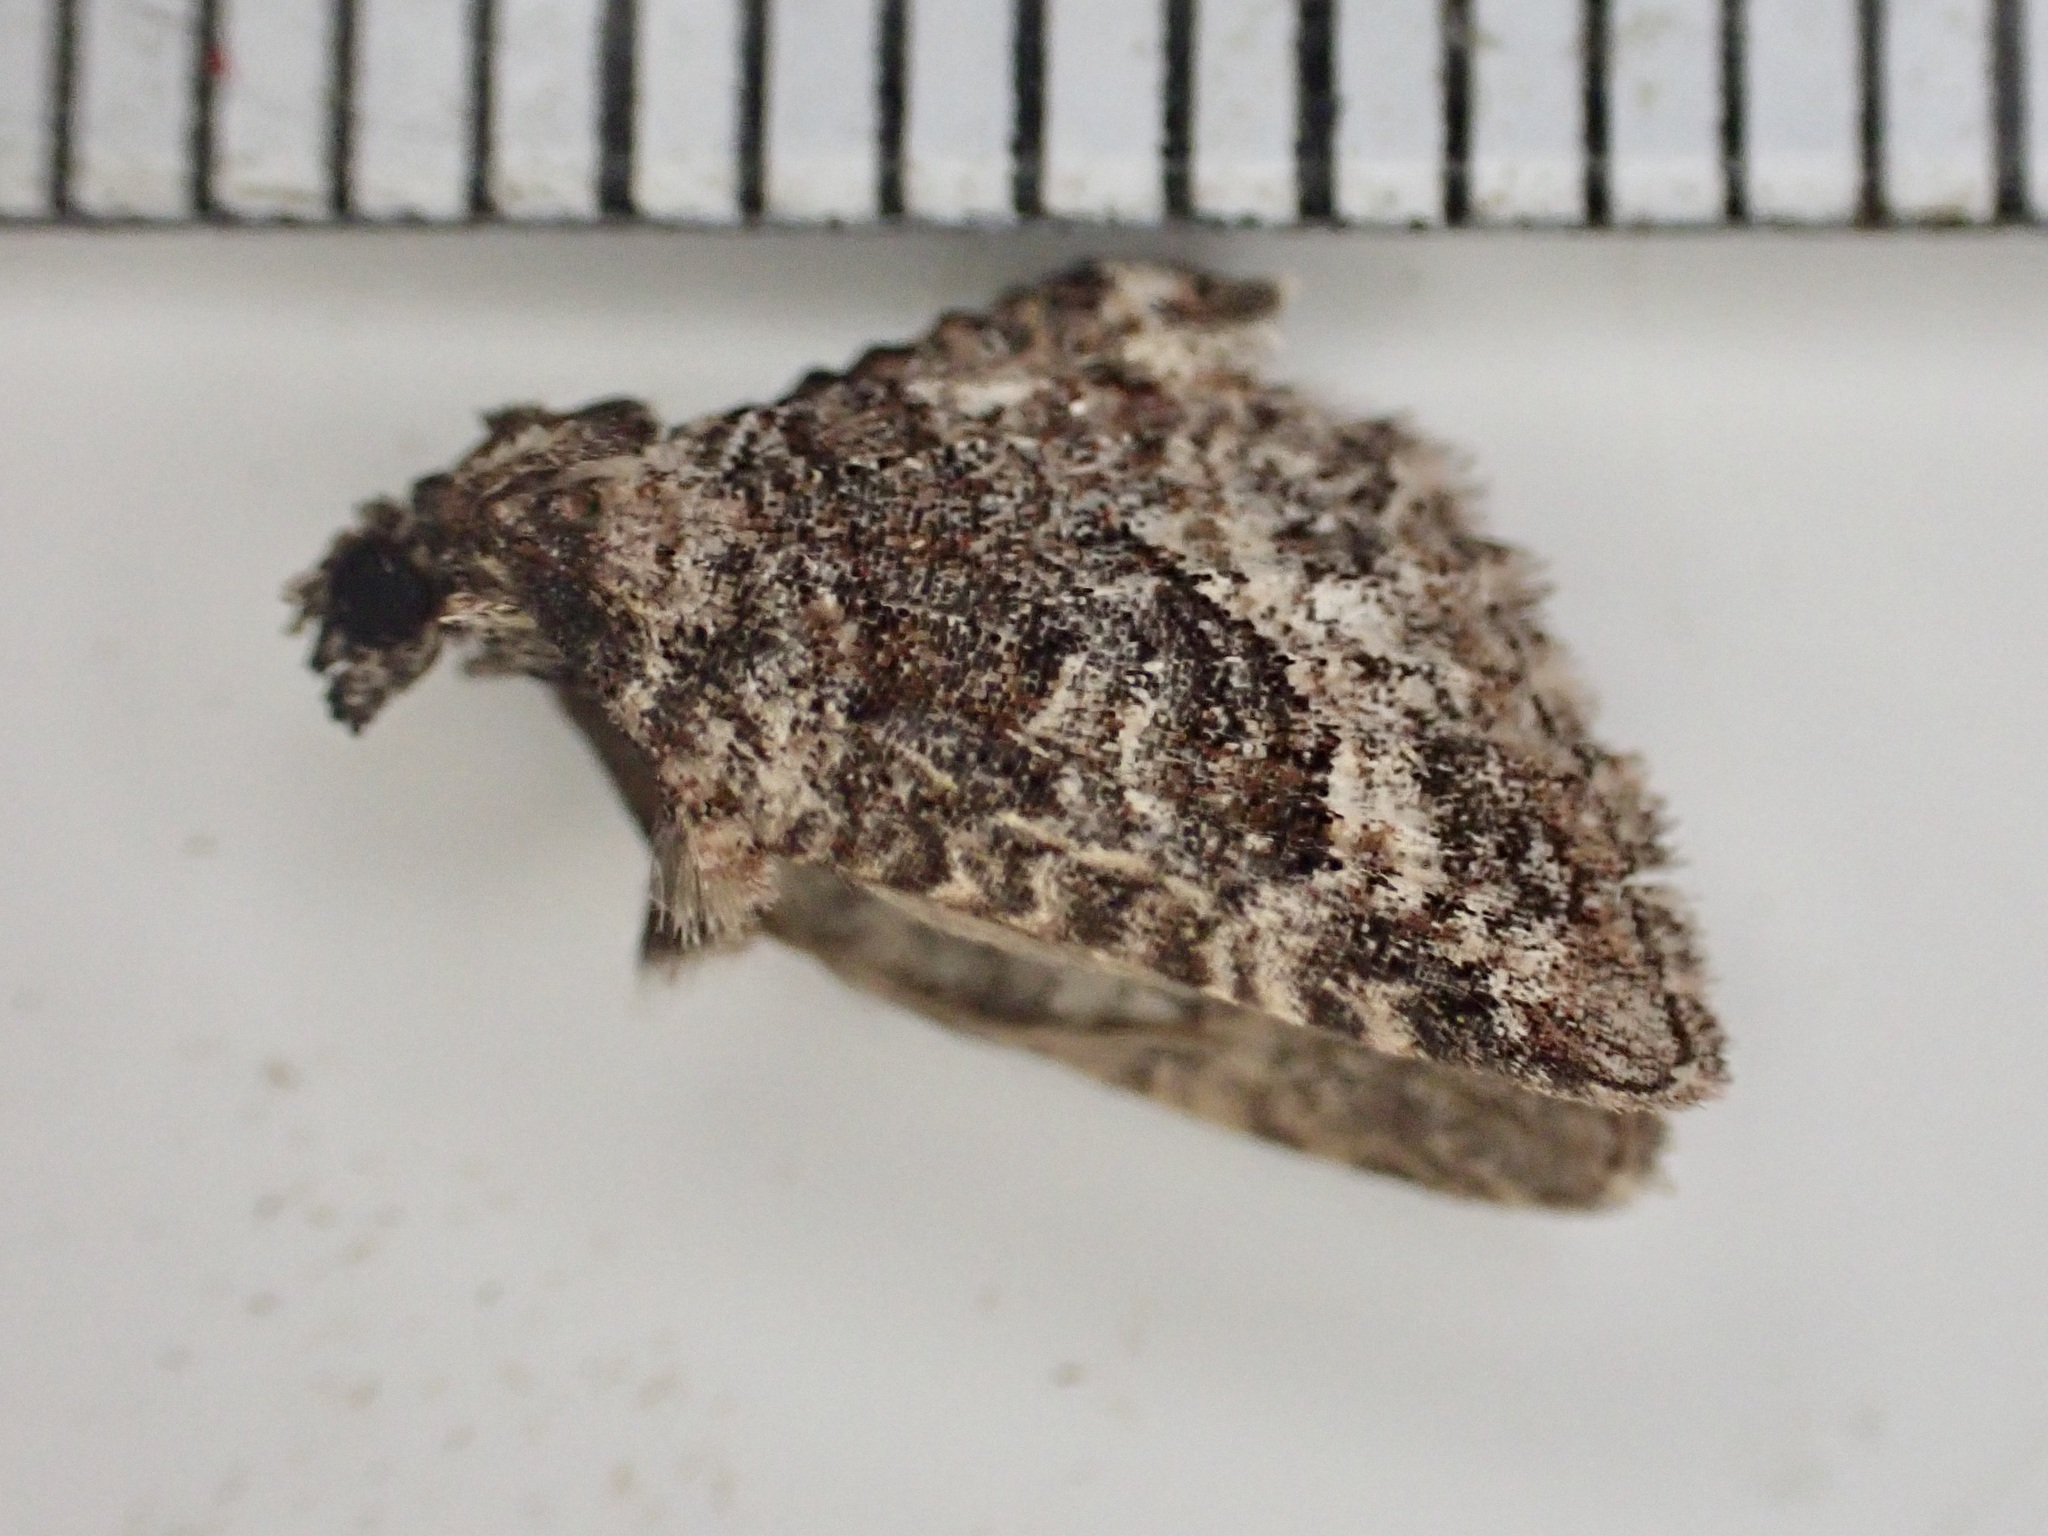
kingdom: Animalia
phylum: Arthropoda
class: Insecta
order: Lepidoptera
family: Geometridae
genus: Phrissogonus
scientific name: Phrissogonus laticostata
